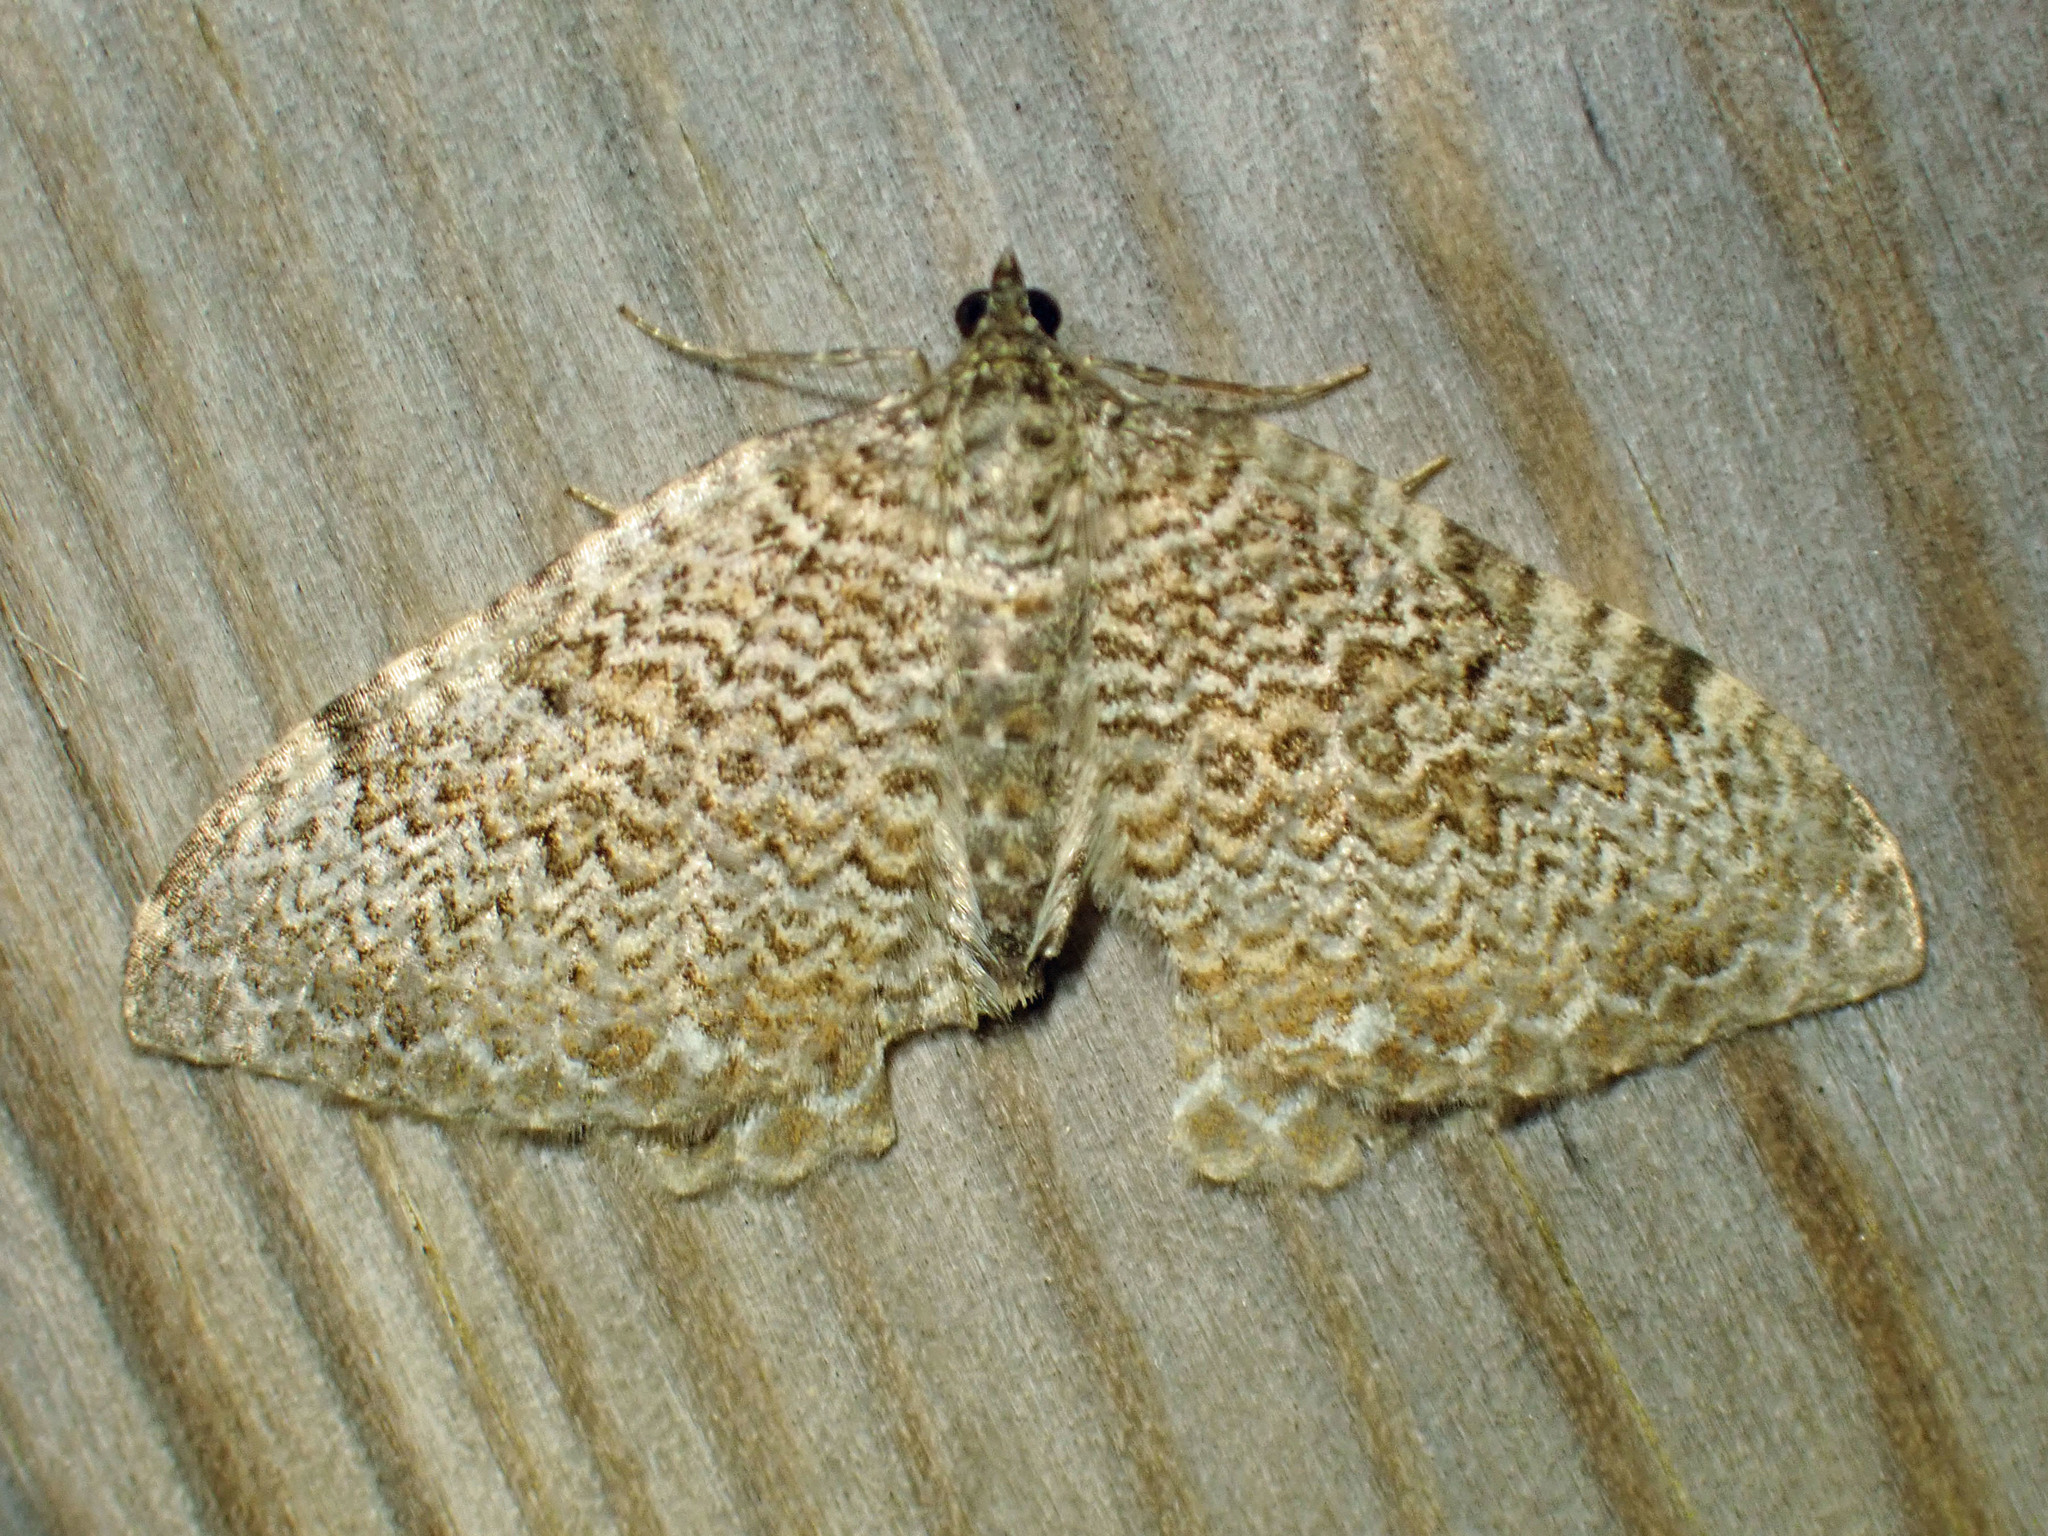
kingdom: Animalia
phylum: Arthropoda
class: Insecta
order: Lepidoptera
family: Geometridae
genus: Rheumaptera
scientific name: Rheumaptera
